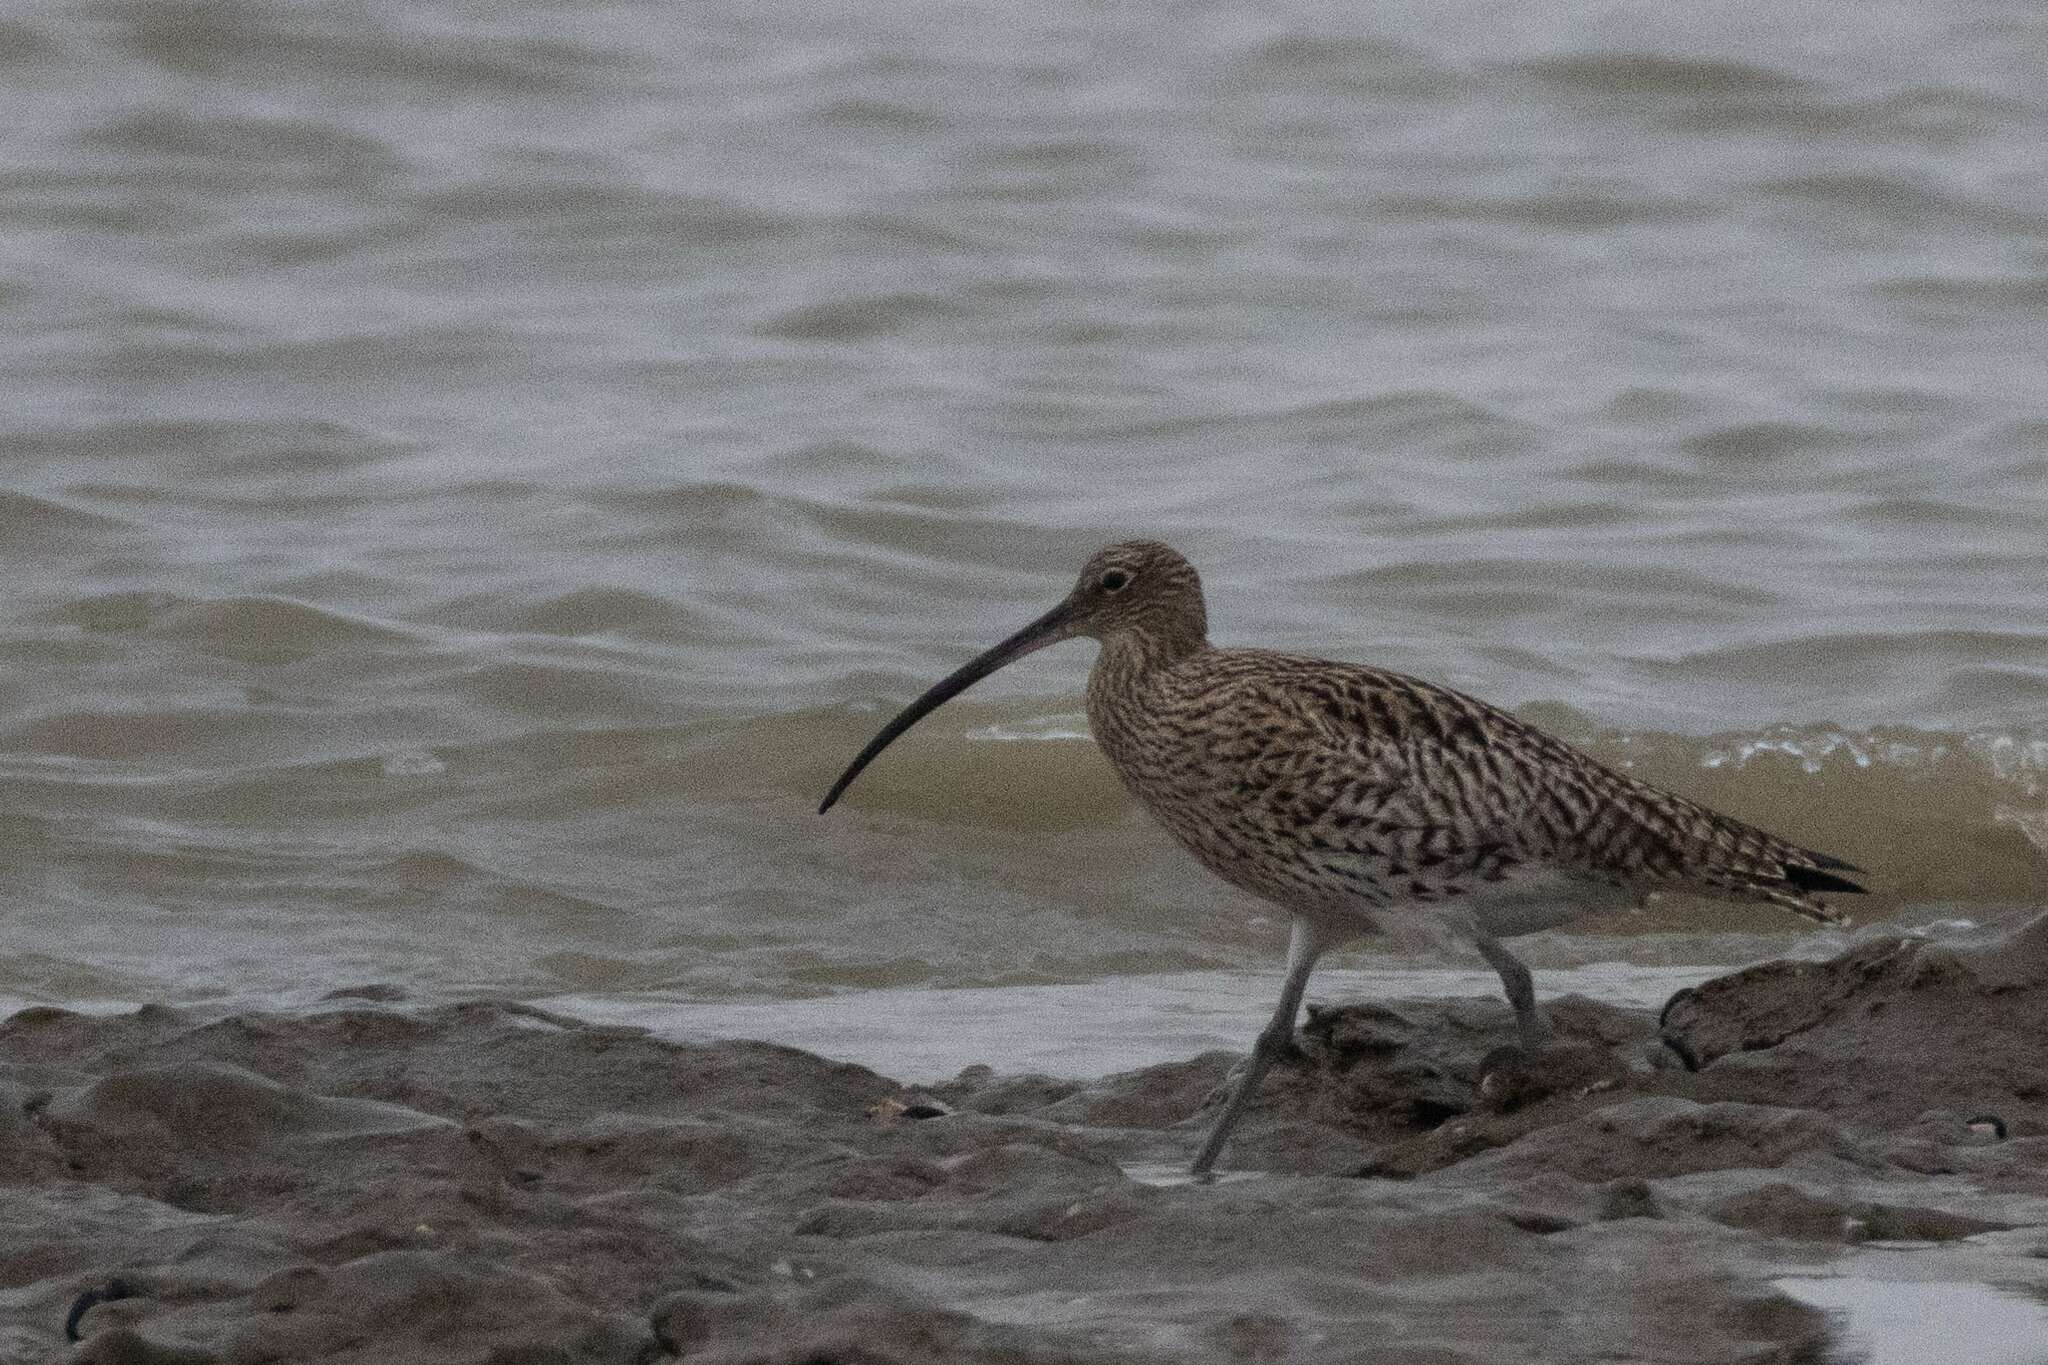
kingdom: Animalia
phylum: Chordata
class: Aves
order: Charadriiformes
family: Scolopacidae
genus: Numenius
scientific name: Numenius arquata
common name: Eurasian curlew
